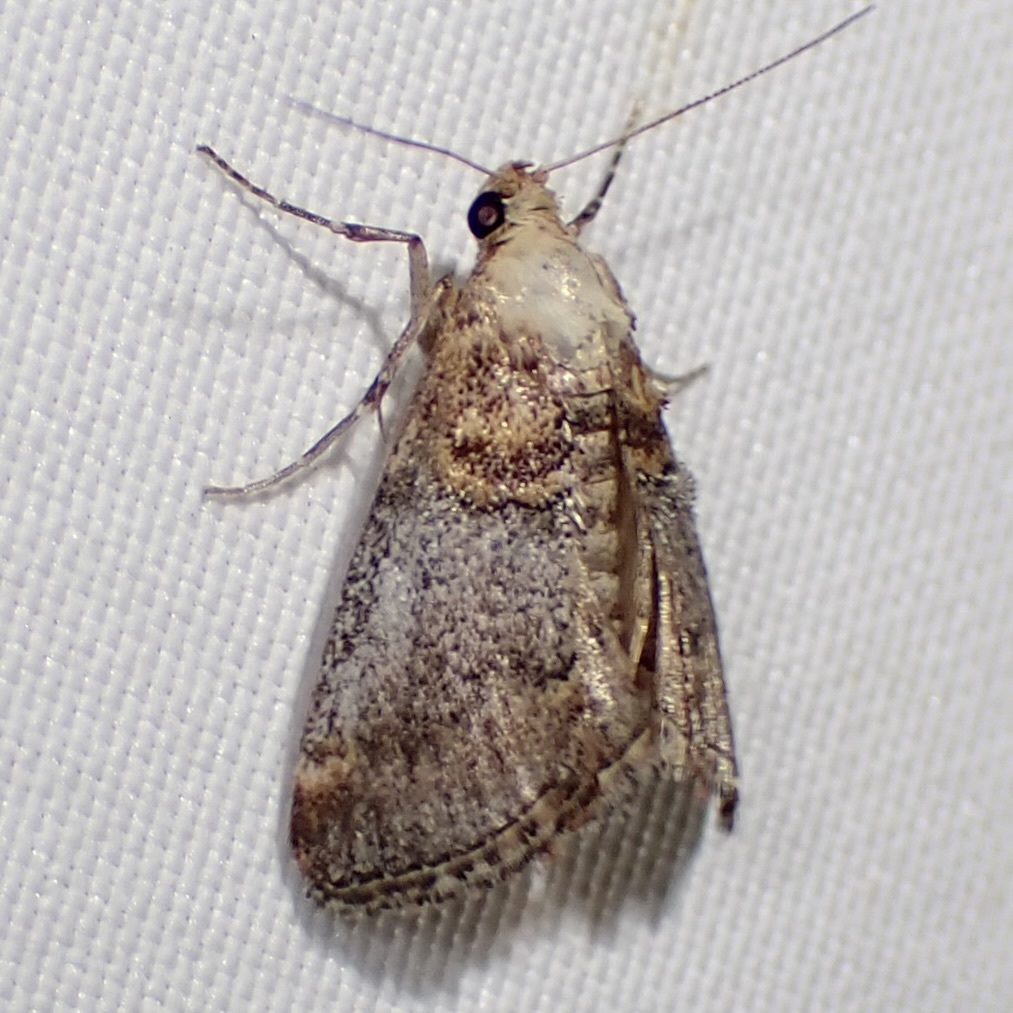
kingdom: Animalia
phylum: Arthropoda
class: Insecta
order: Lepidoptera
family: Pyralidae
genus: Cacozelia
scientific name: Cacozelia basiochrealis
